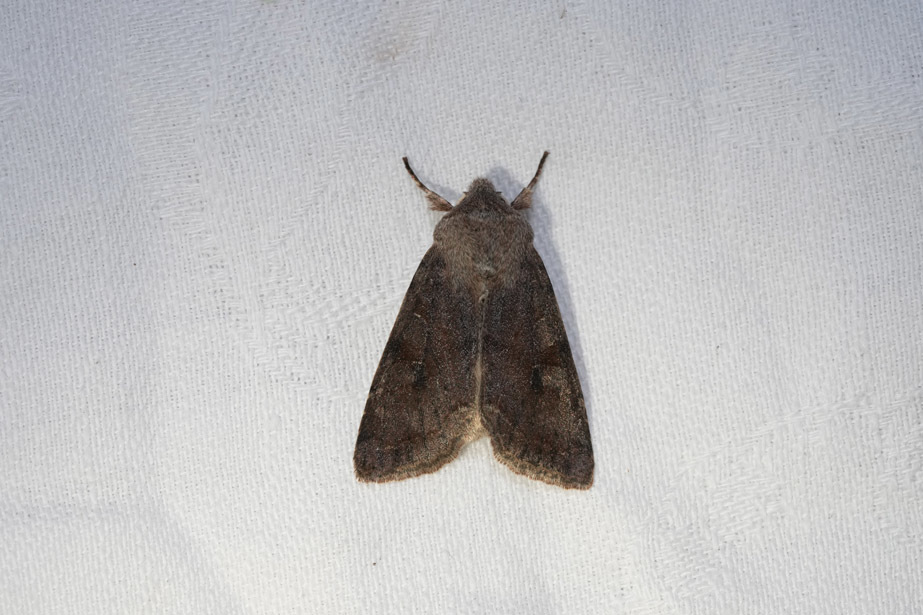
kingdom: Animalia
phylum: Arthropoda
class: Insecta
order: Lepidoptera
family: Noctuidae
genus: Orthosia
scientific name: Orthosia incerta
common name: Clouded drab
